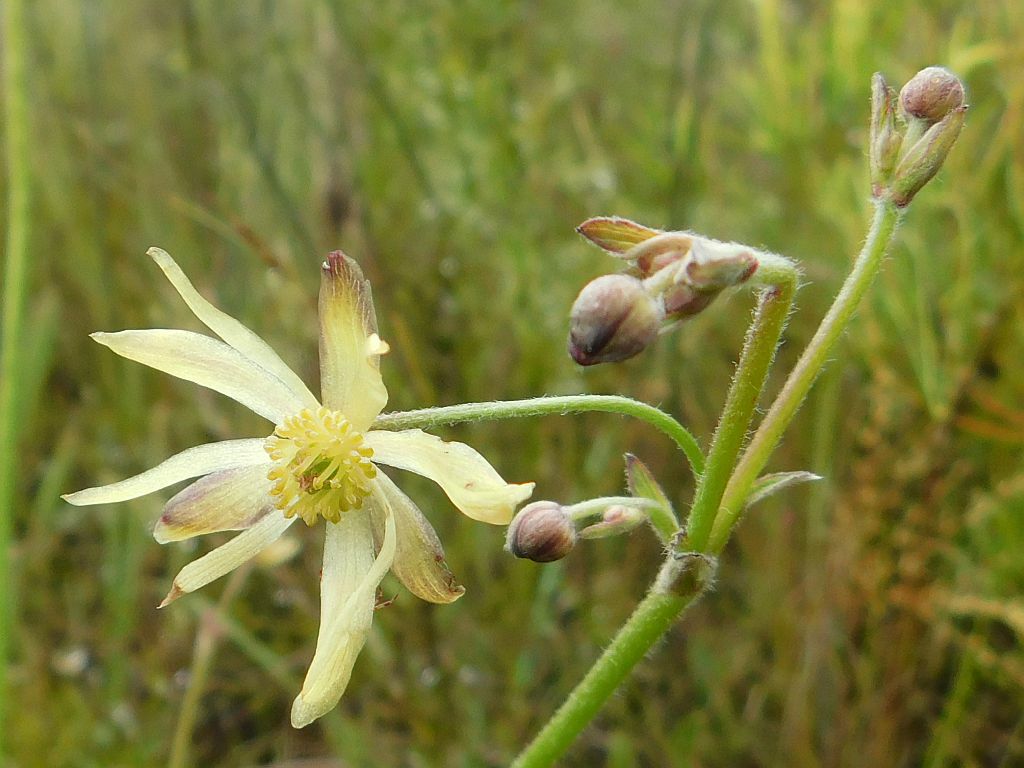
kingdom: Plantae
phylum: Tracheophyta
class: Magnoliopsida
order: Ranunculales
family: Ranunculaceae
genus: Knowltonia
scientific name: Knowltonia anemonoides
